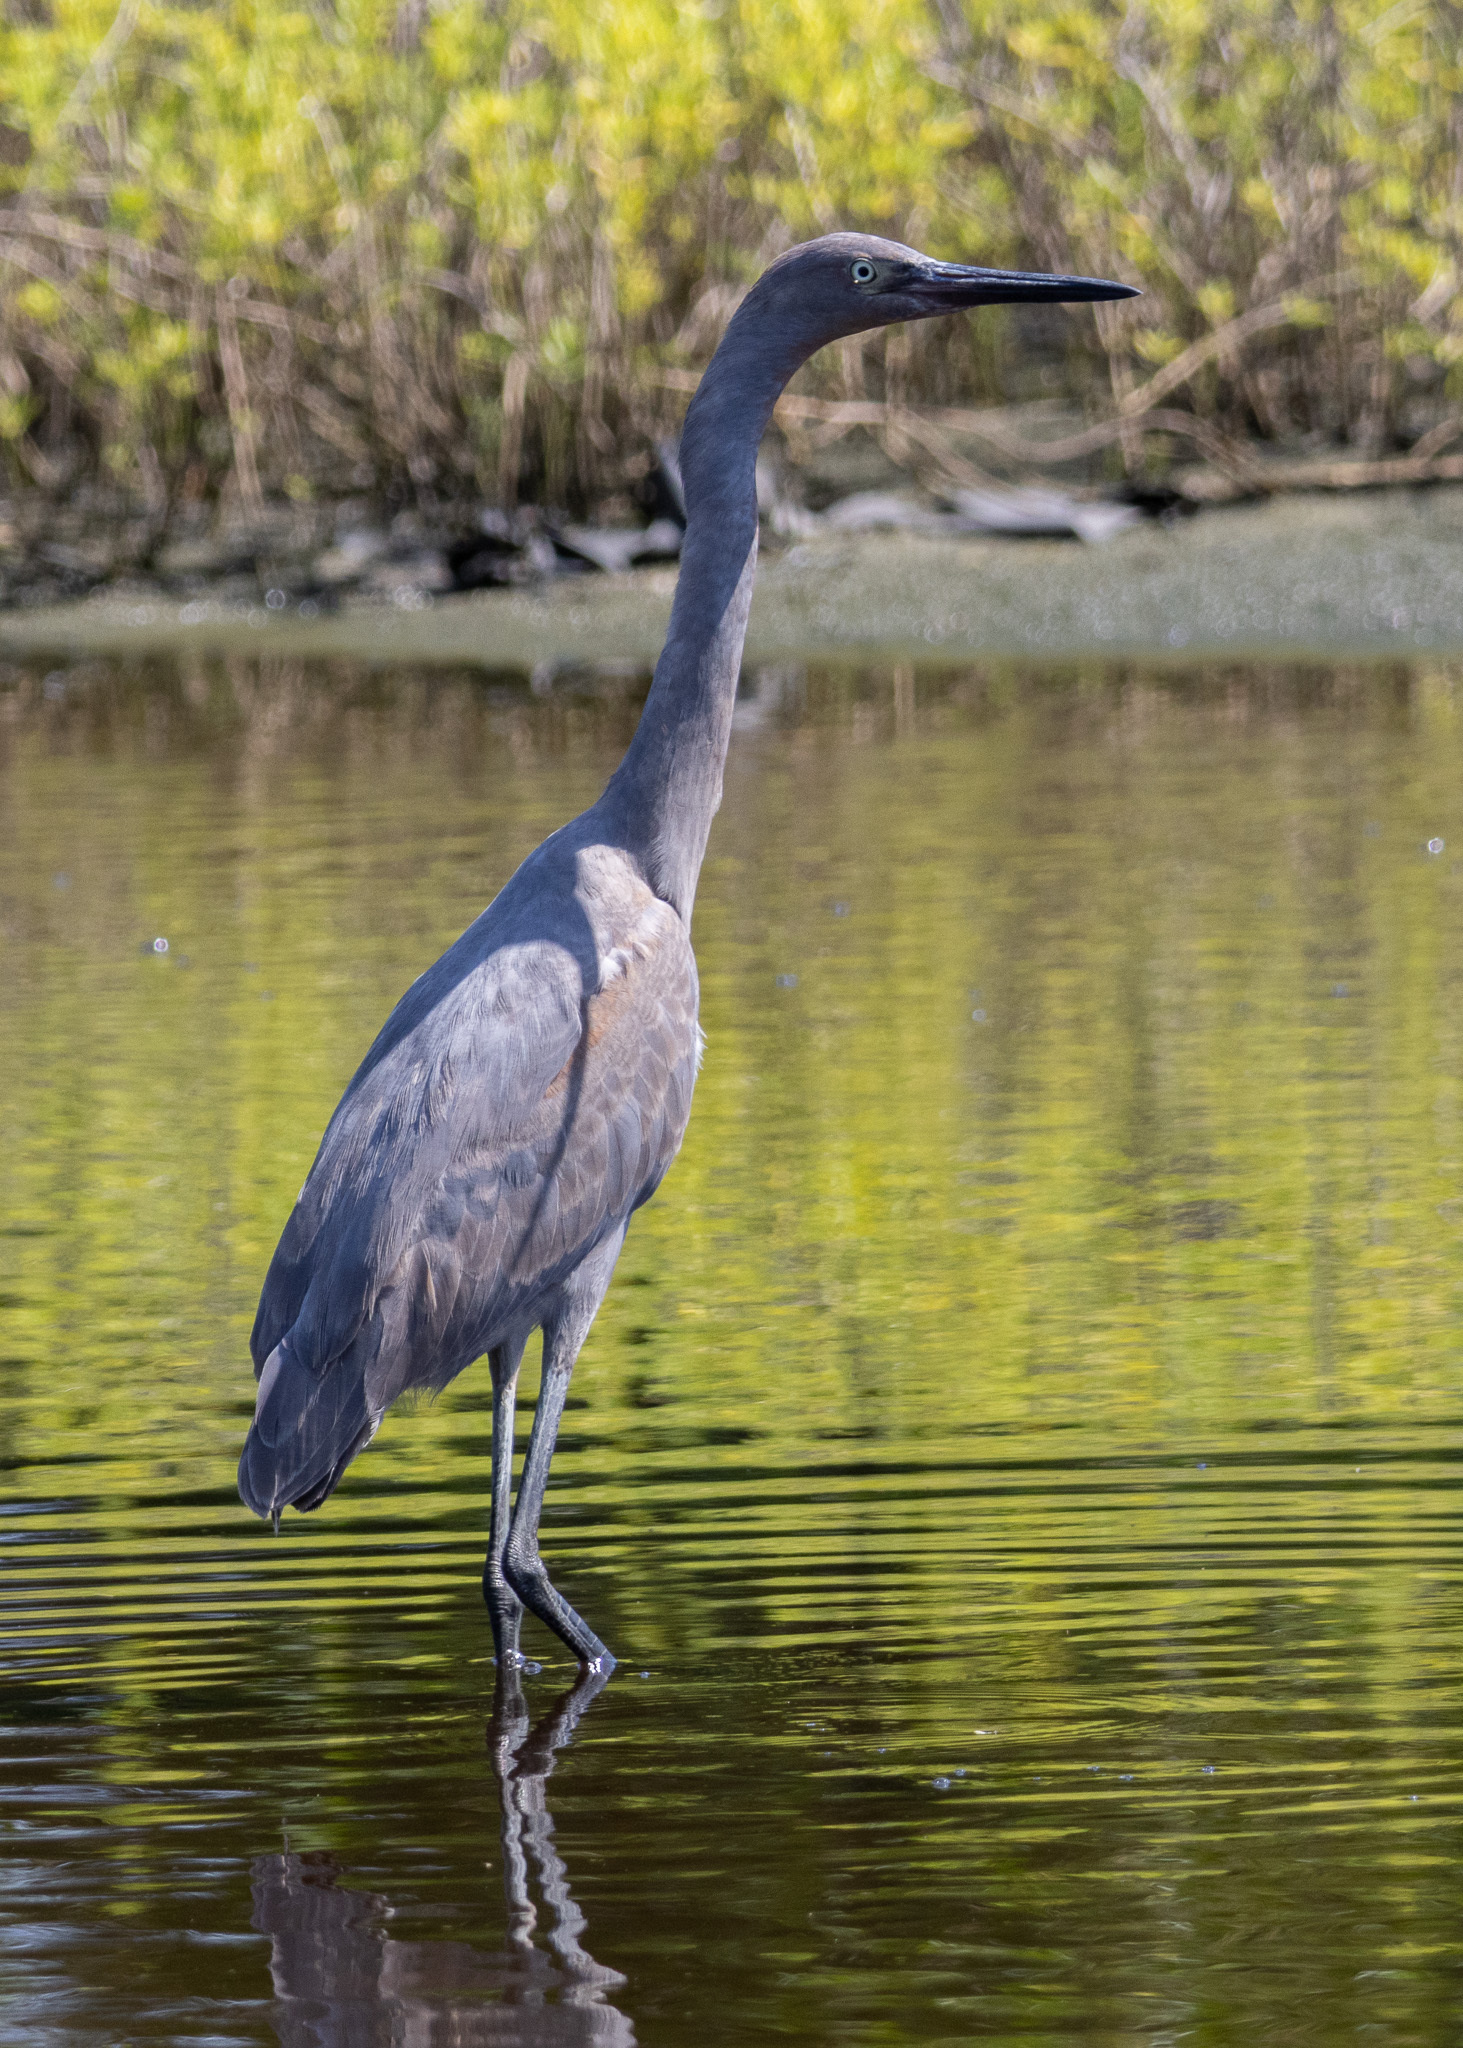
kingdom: Animalia
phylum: Chordata
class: Aves
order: Pelecaniformes
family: Ardeidae
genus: Egretta
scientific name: Egretta rufescens
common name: Reddish egret
